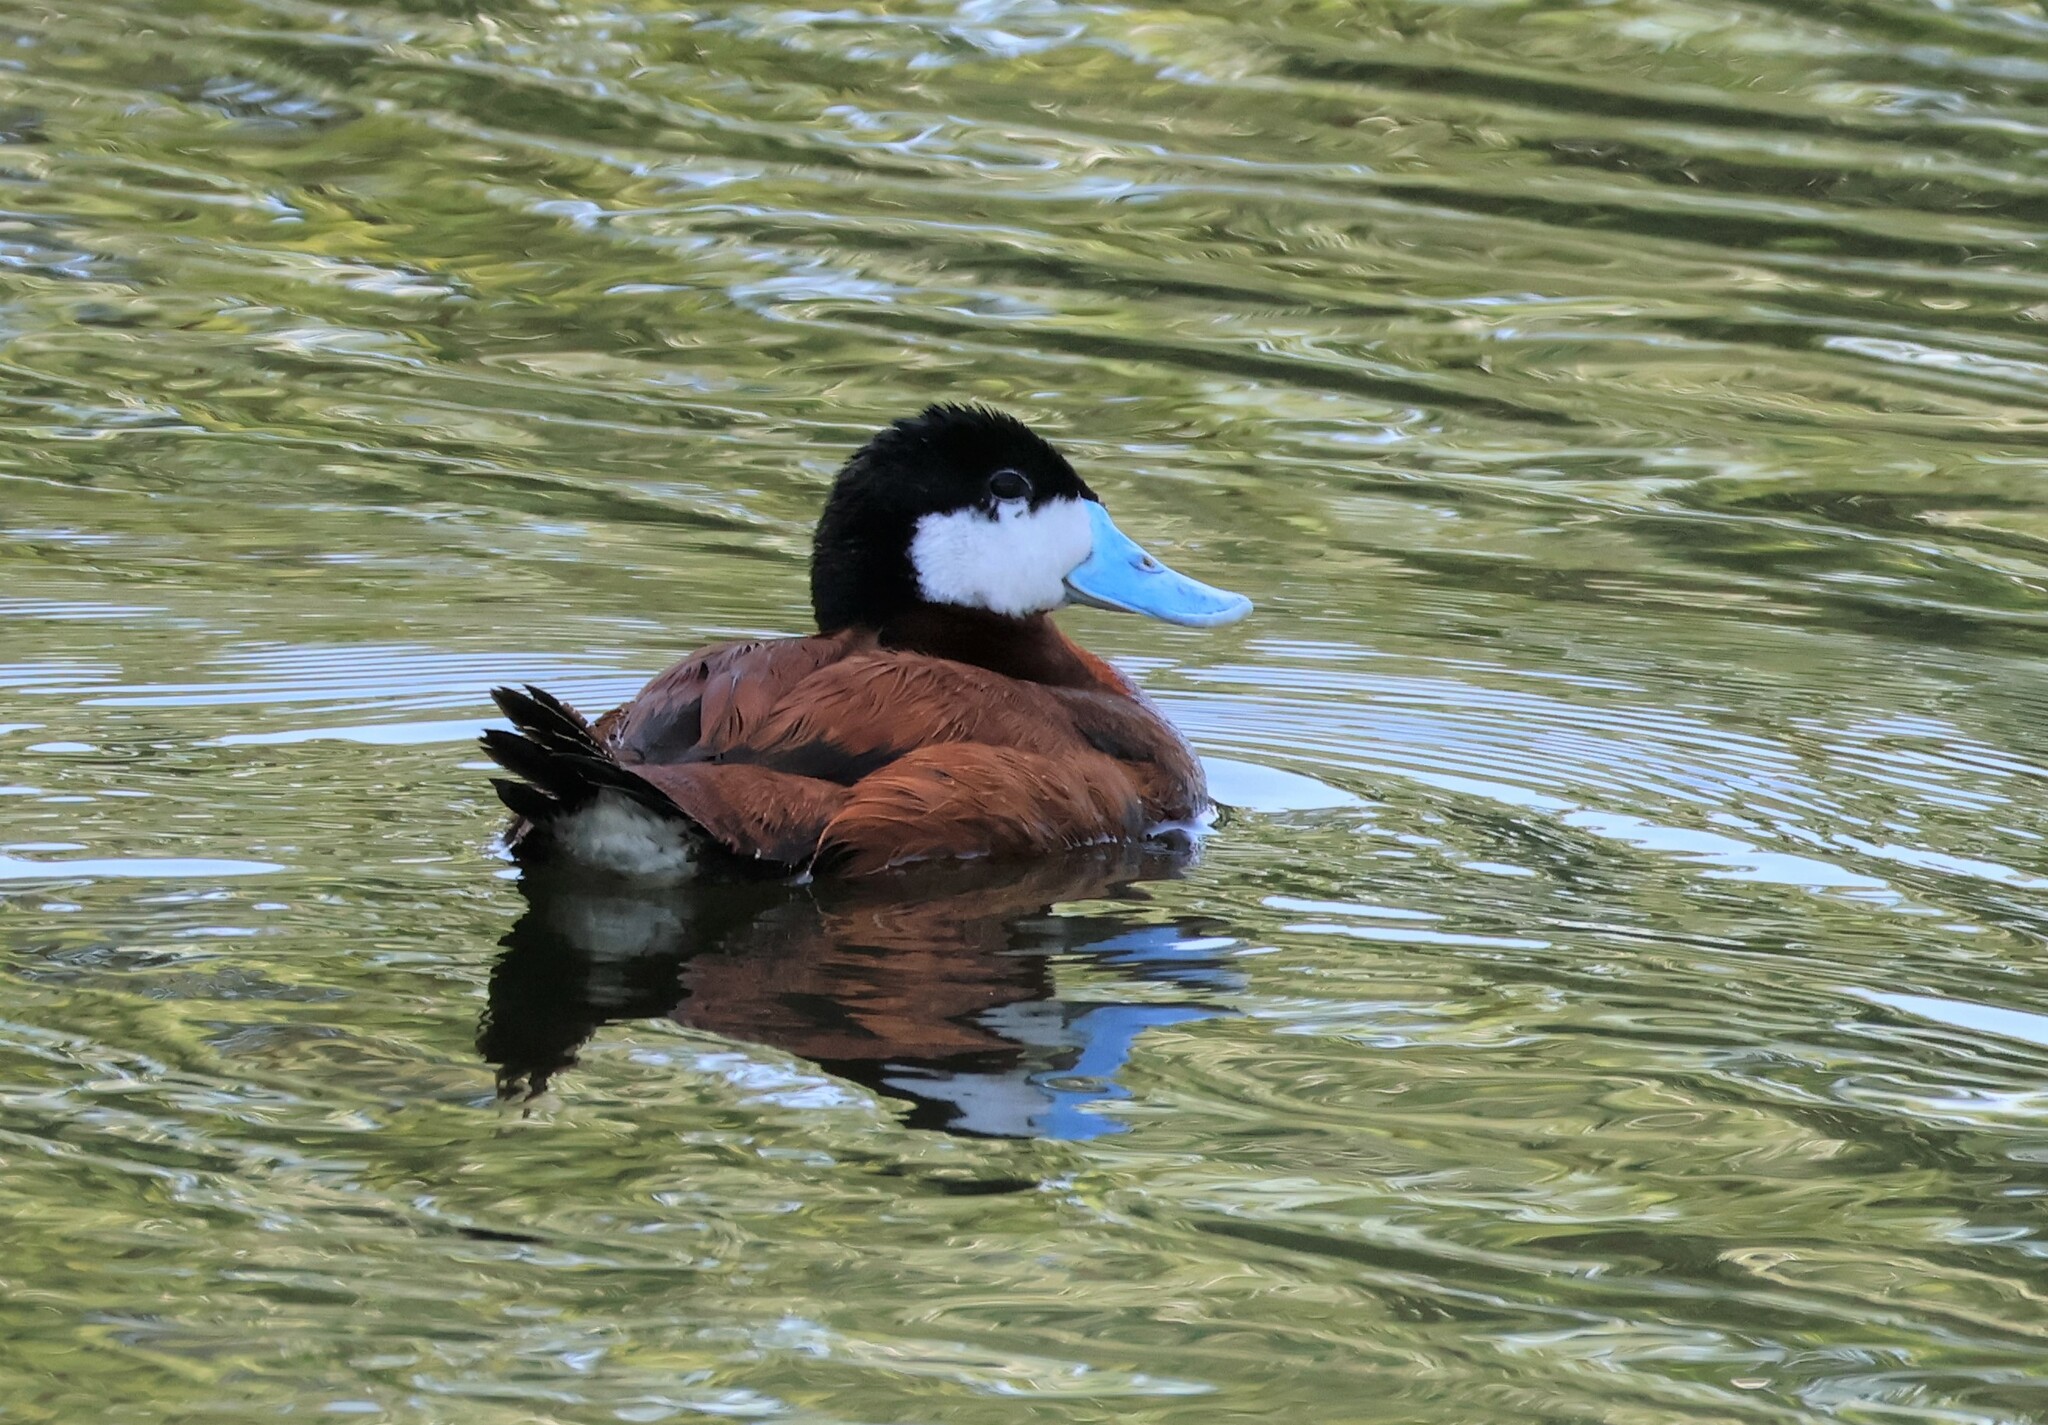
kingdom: Animalia
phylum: Chordata
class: Aves
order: Anseriformes
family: Anatidae
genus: Oxyura
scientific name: Oxyura jamaicensis
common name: Ruddy duck
